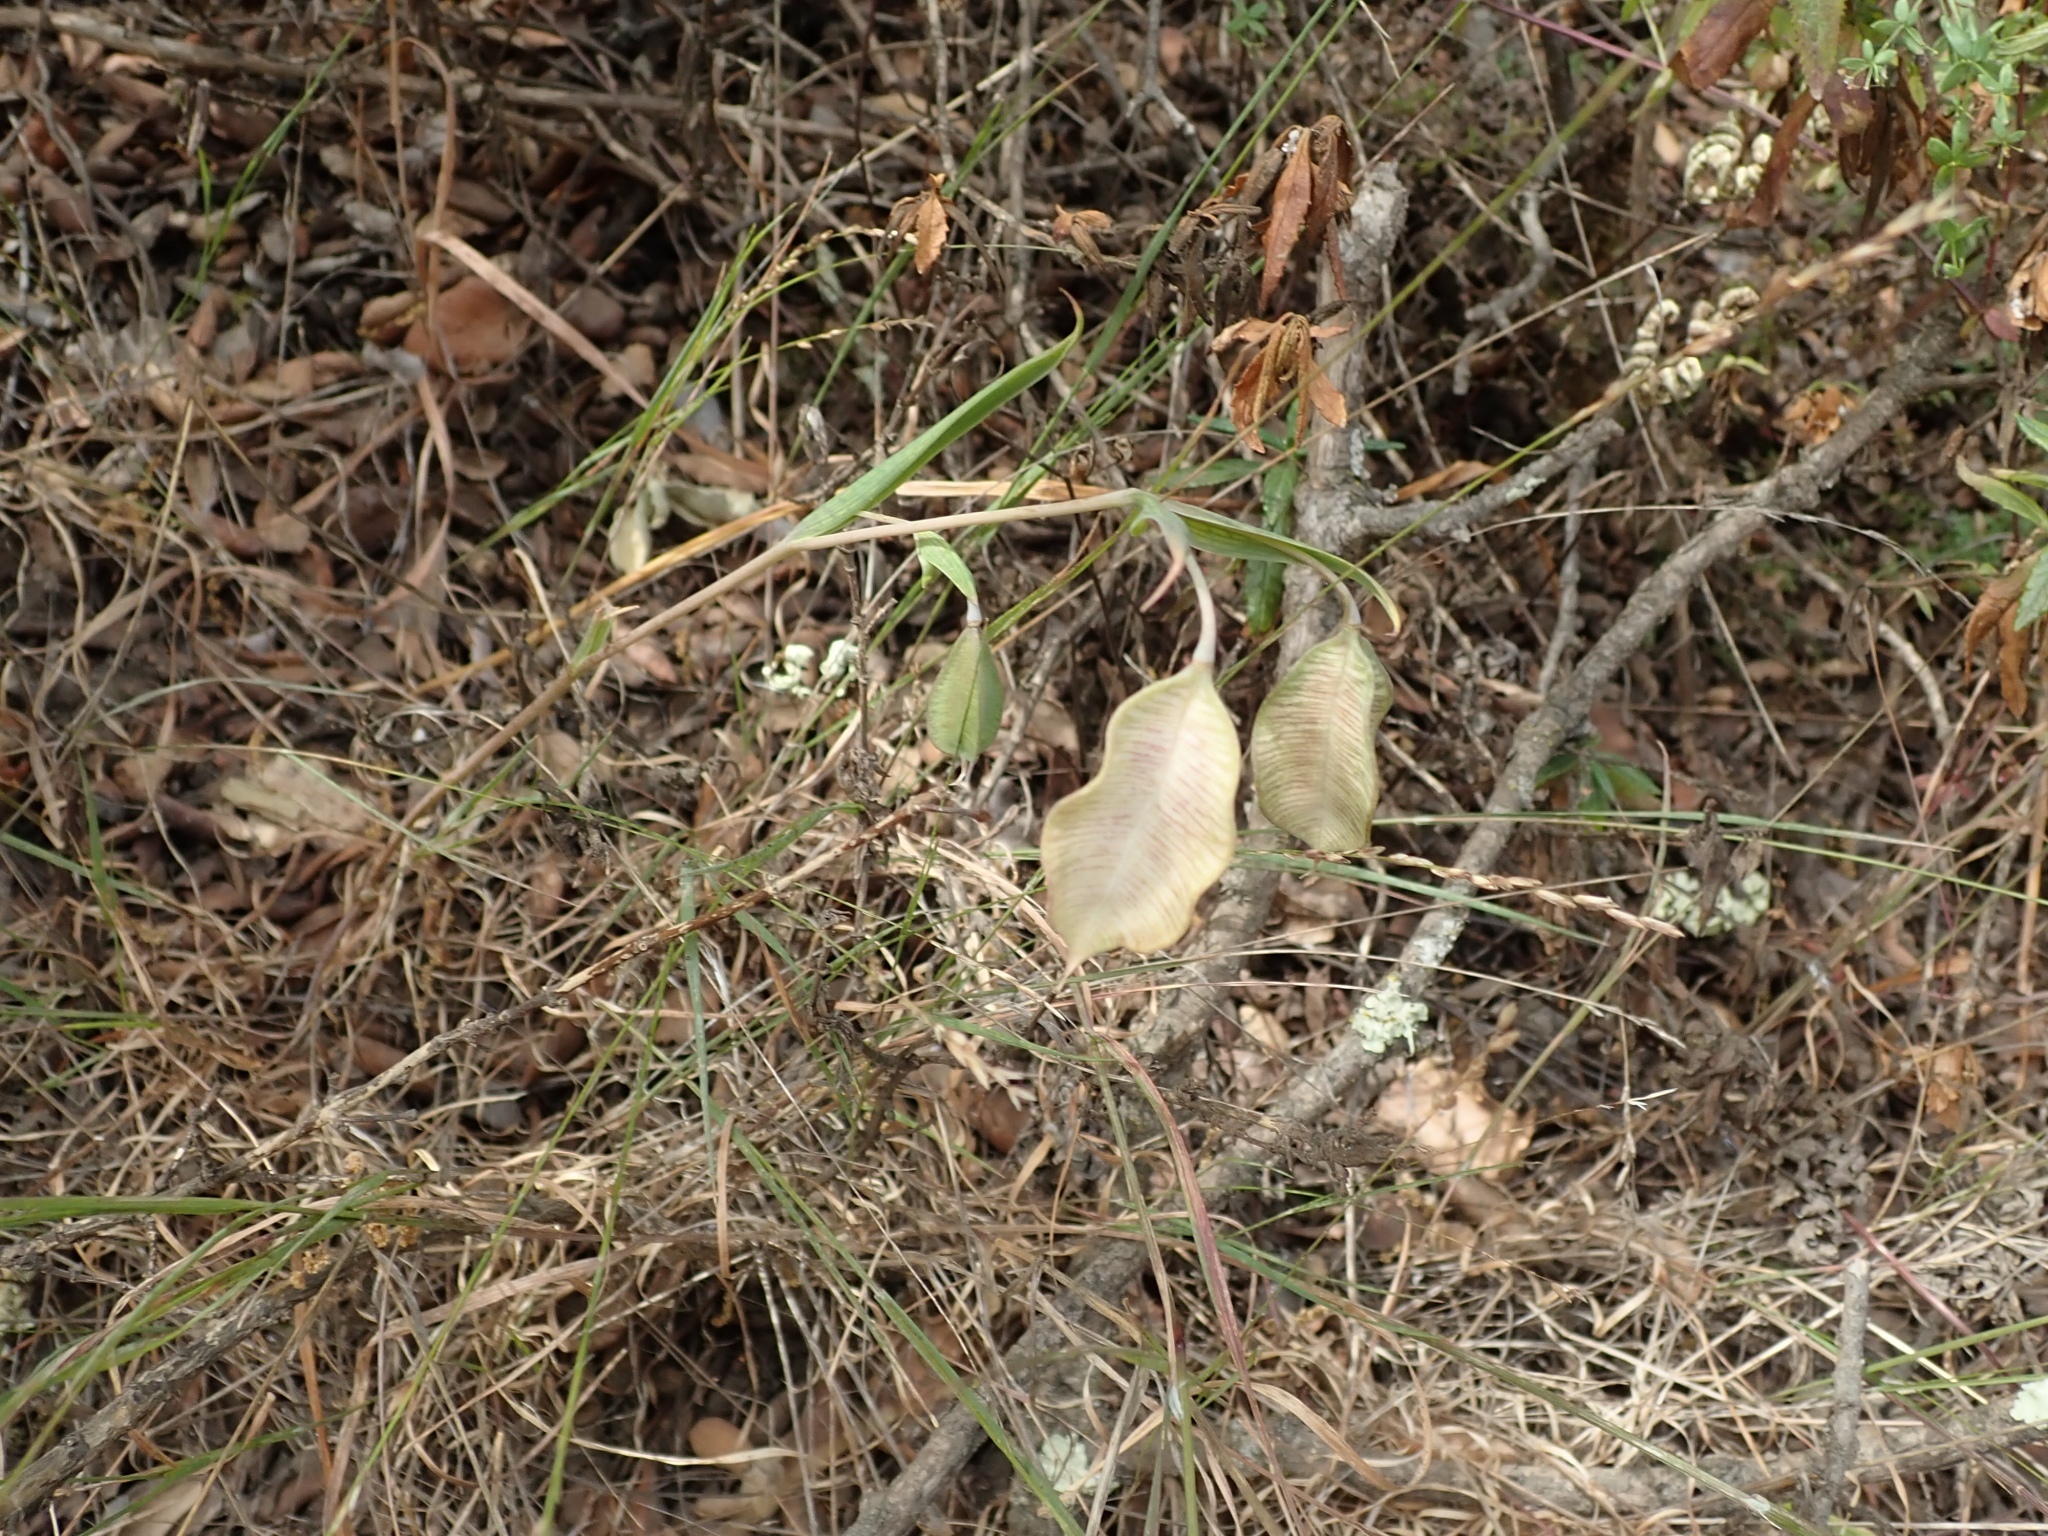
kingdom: Plantae
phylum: Tracheophyta
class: Liliopsida
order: Liliales
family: Liliaceae
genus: Calochortus
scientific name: Calochortus albus
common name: Fairy-lantern
